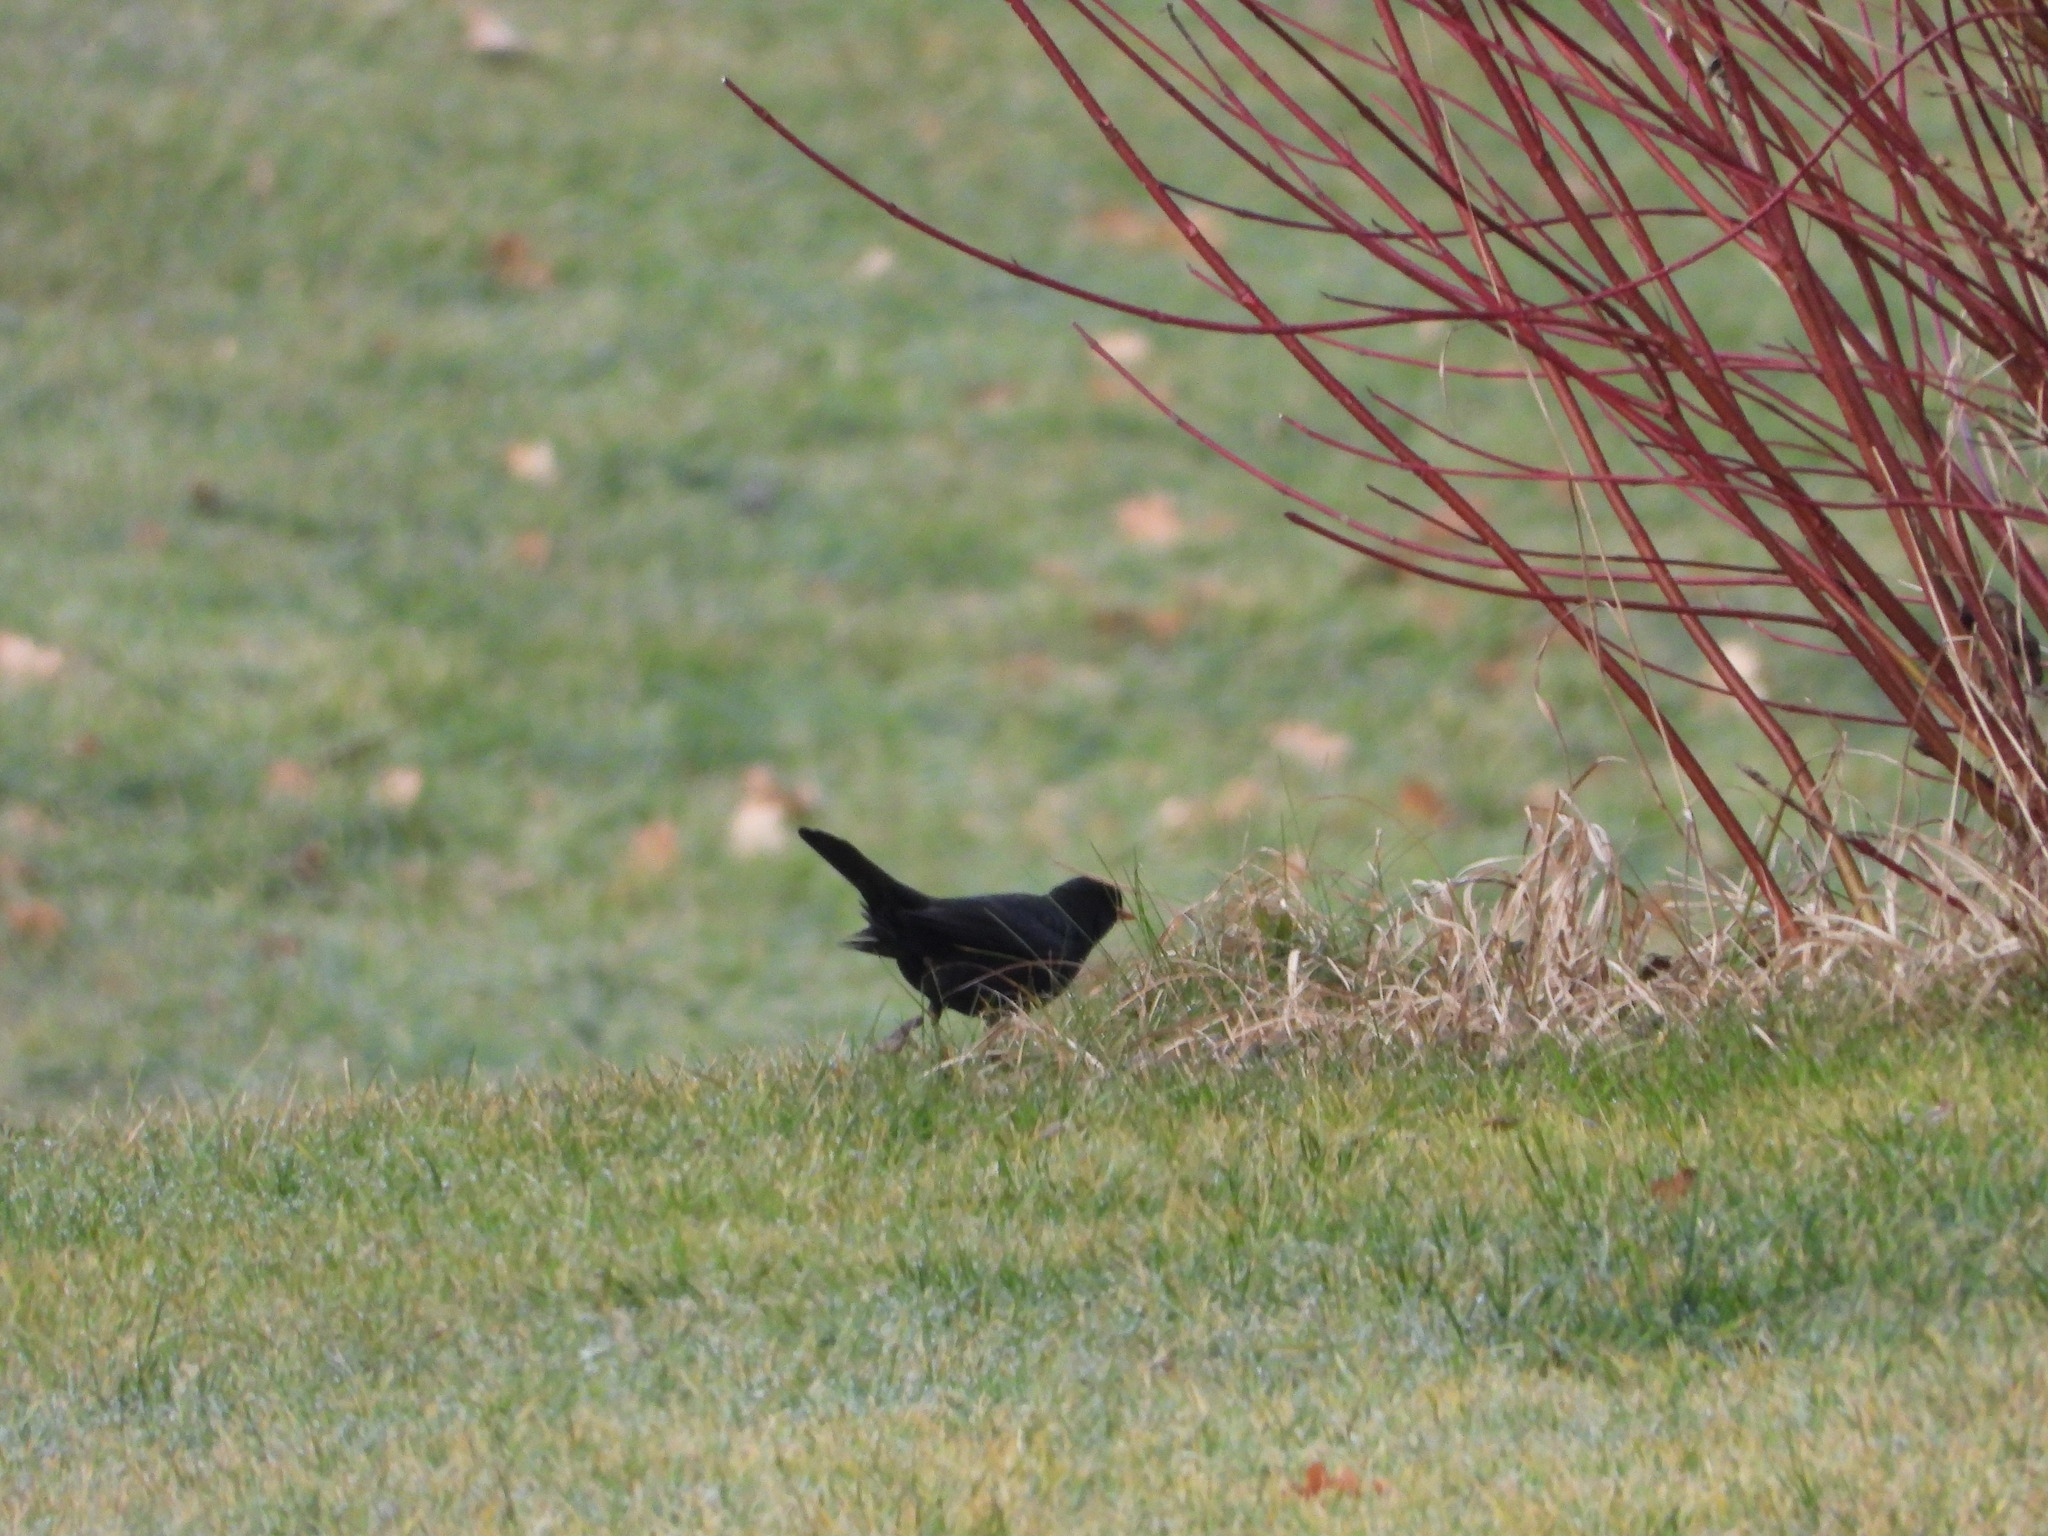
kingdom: Animalia
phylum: Chordata
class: Aves
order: Passeriformes
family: Turdidae
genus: Turdus
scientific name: Turdus merula
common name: Common blackbird
